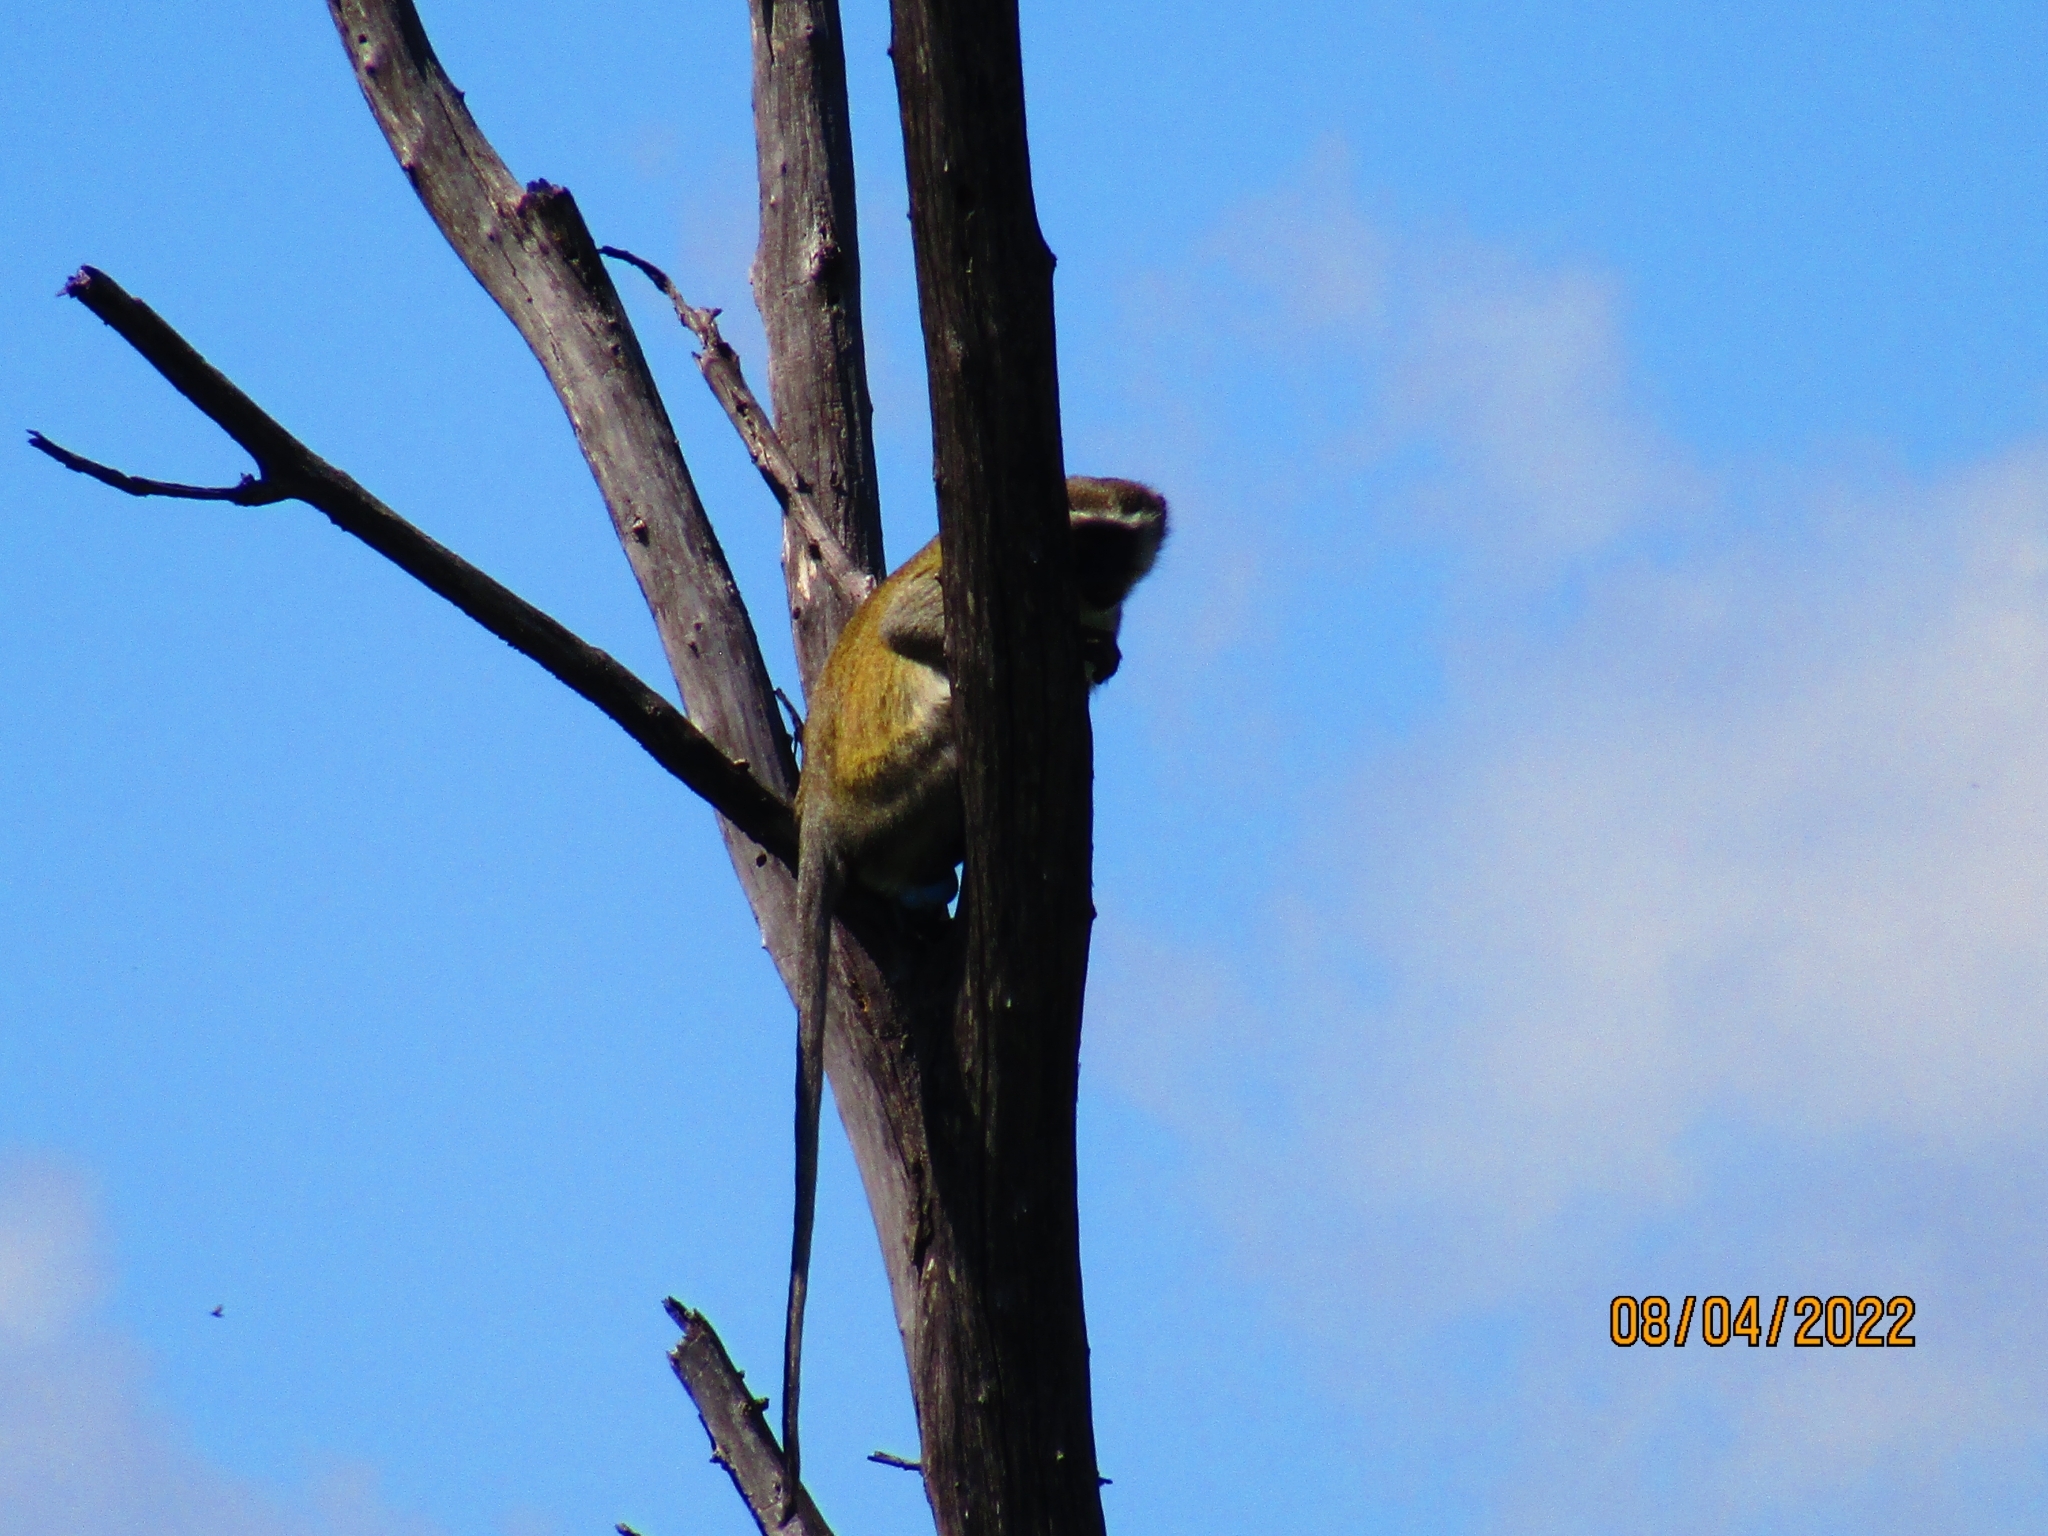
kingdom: Animalia
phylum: Chordata
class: Mammalia
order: Primates
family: Cercopithecidae
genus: Chlorocebus
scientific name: Chlorocebus pygerythrus
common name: Vervet monkey
